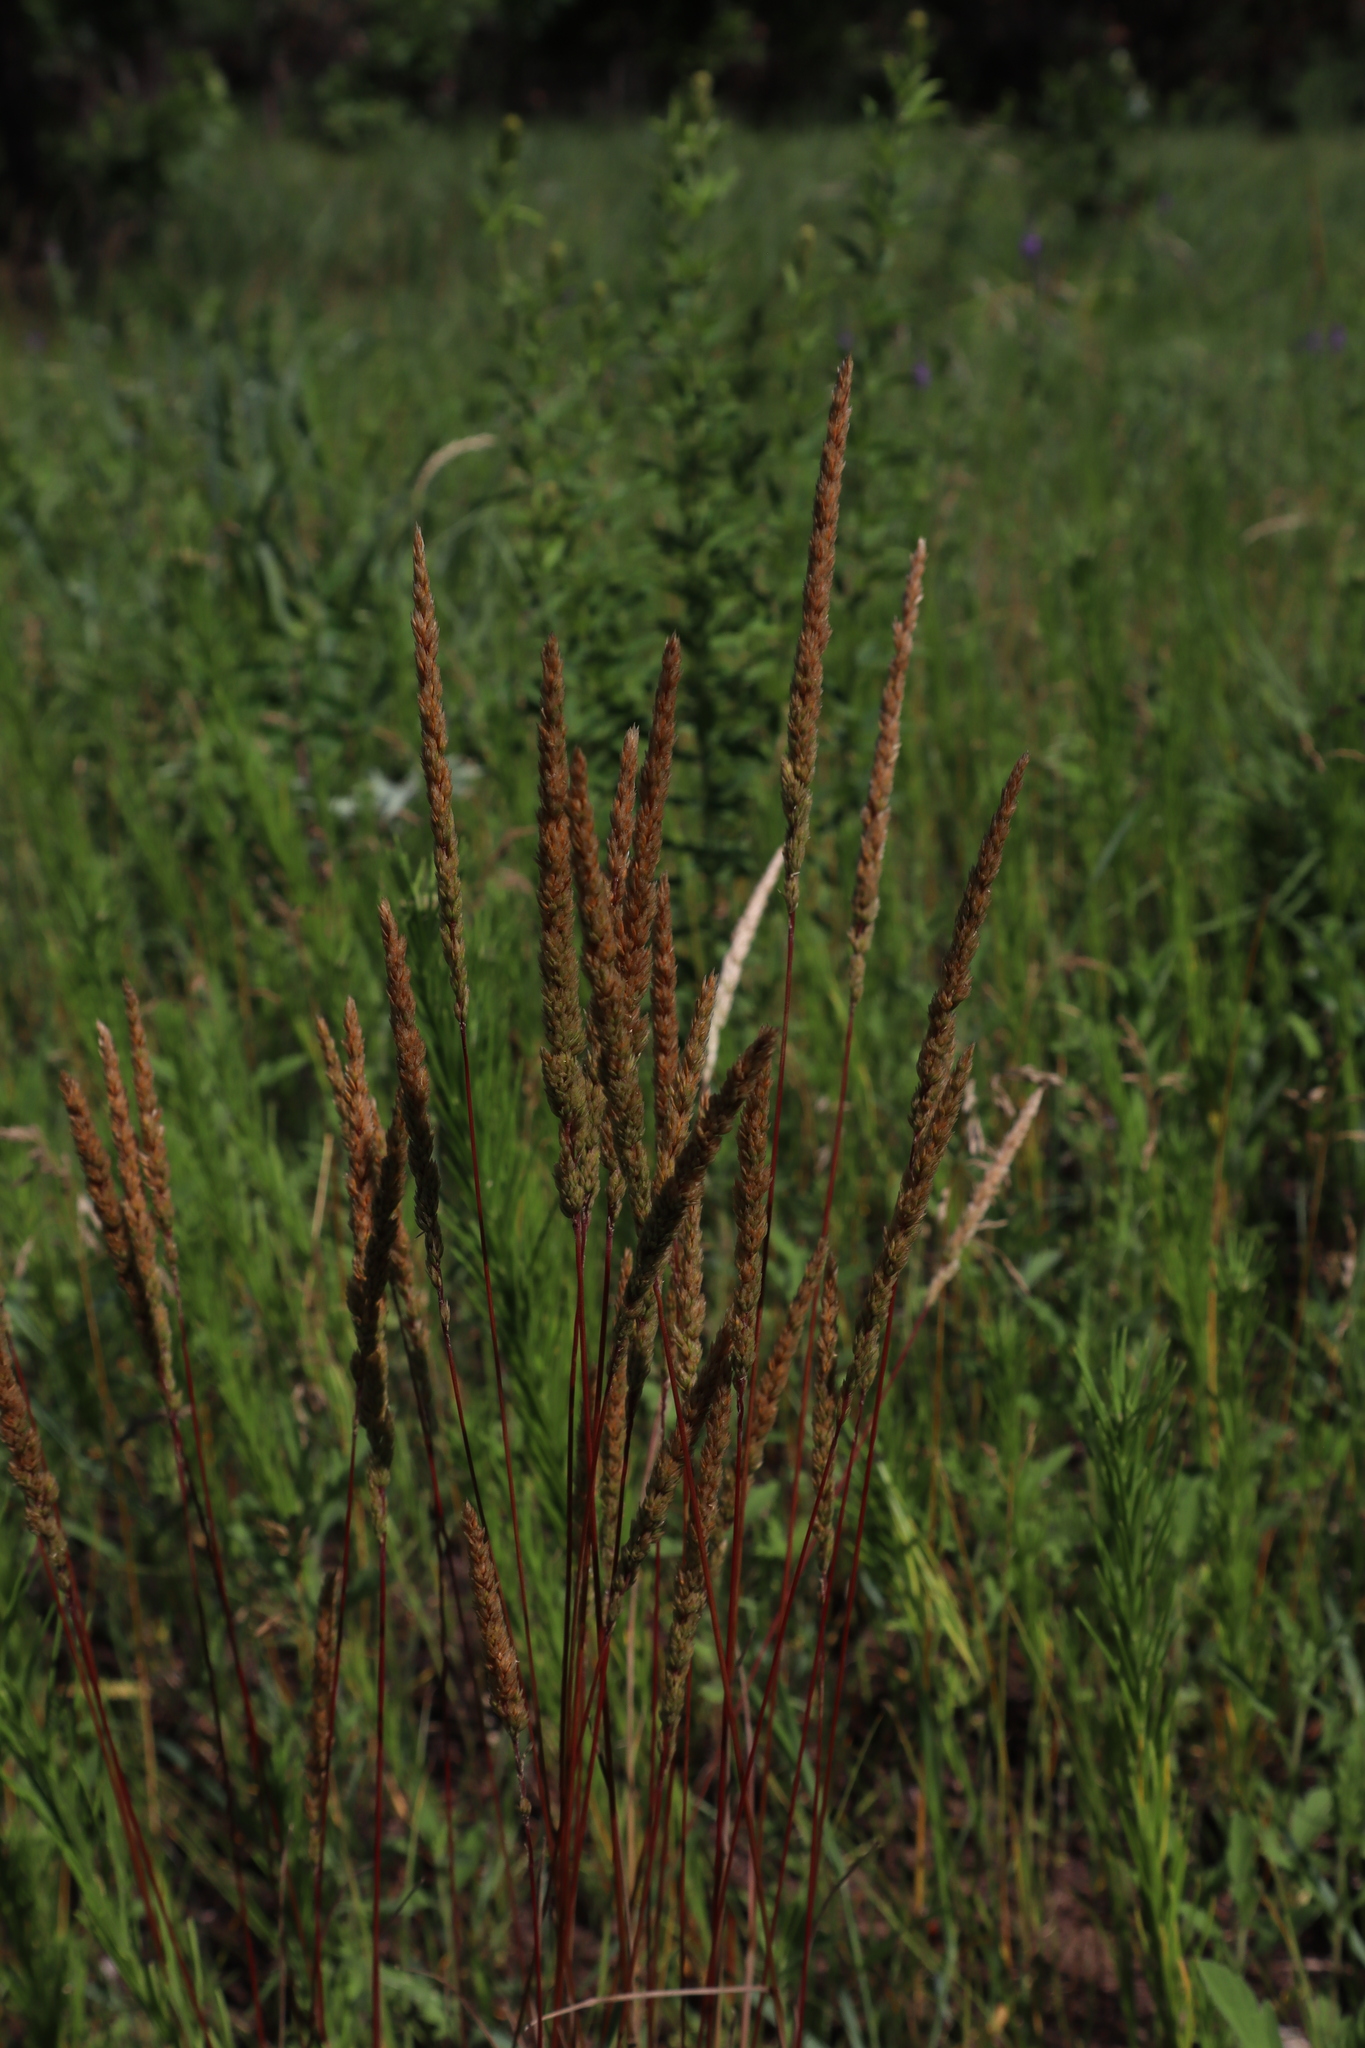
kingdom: Plantae
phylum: Tracheophyta
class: Liliopsida
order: Poales
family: Poaceae
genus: Koeleria
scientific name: Koeleria macrantha
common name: Crested hair-grass
